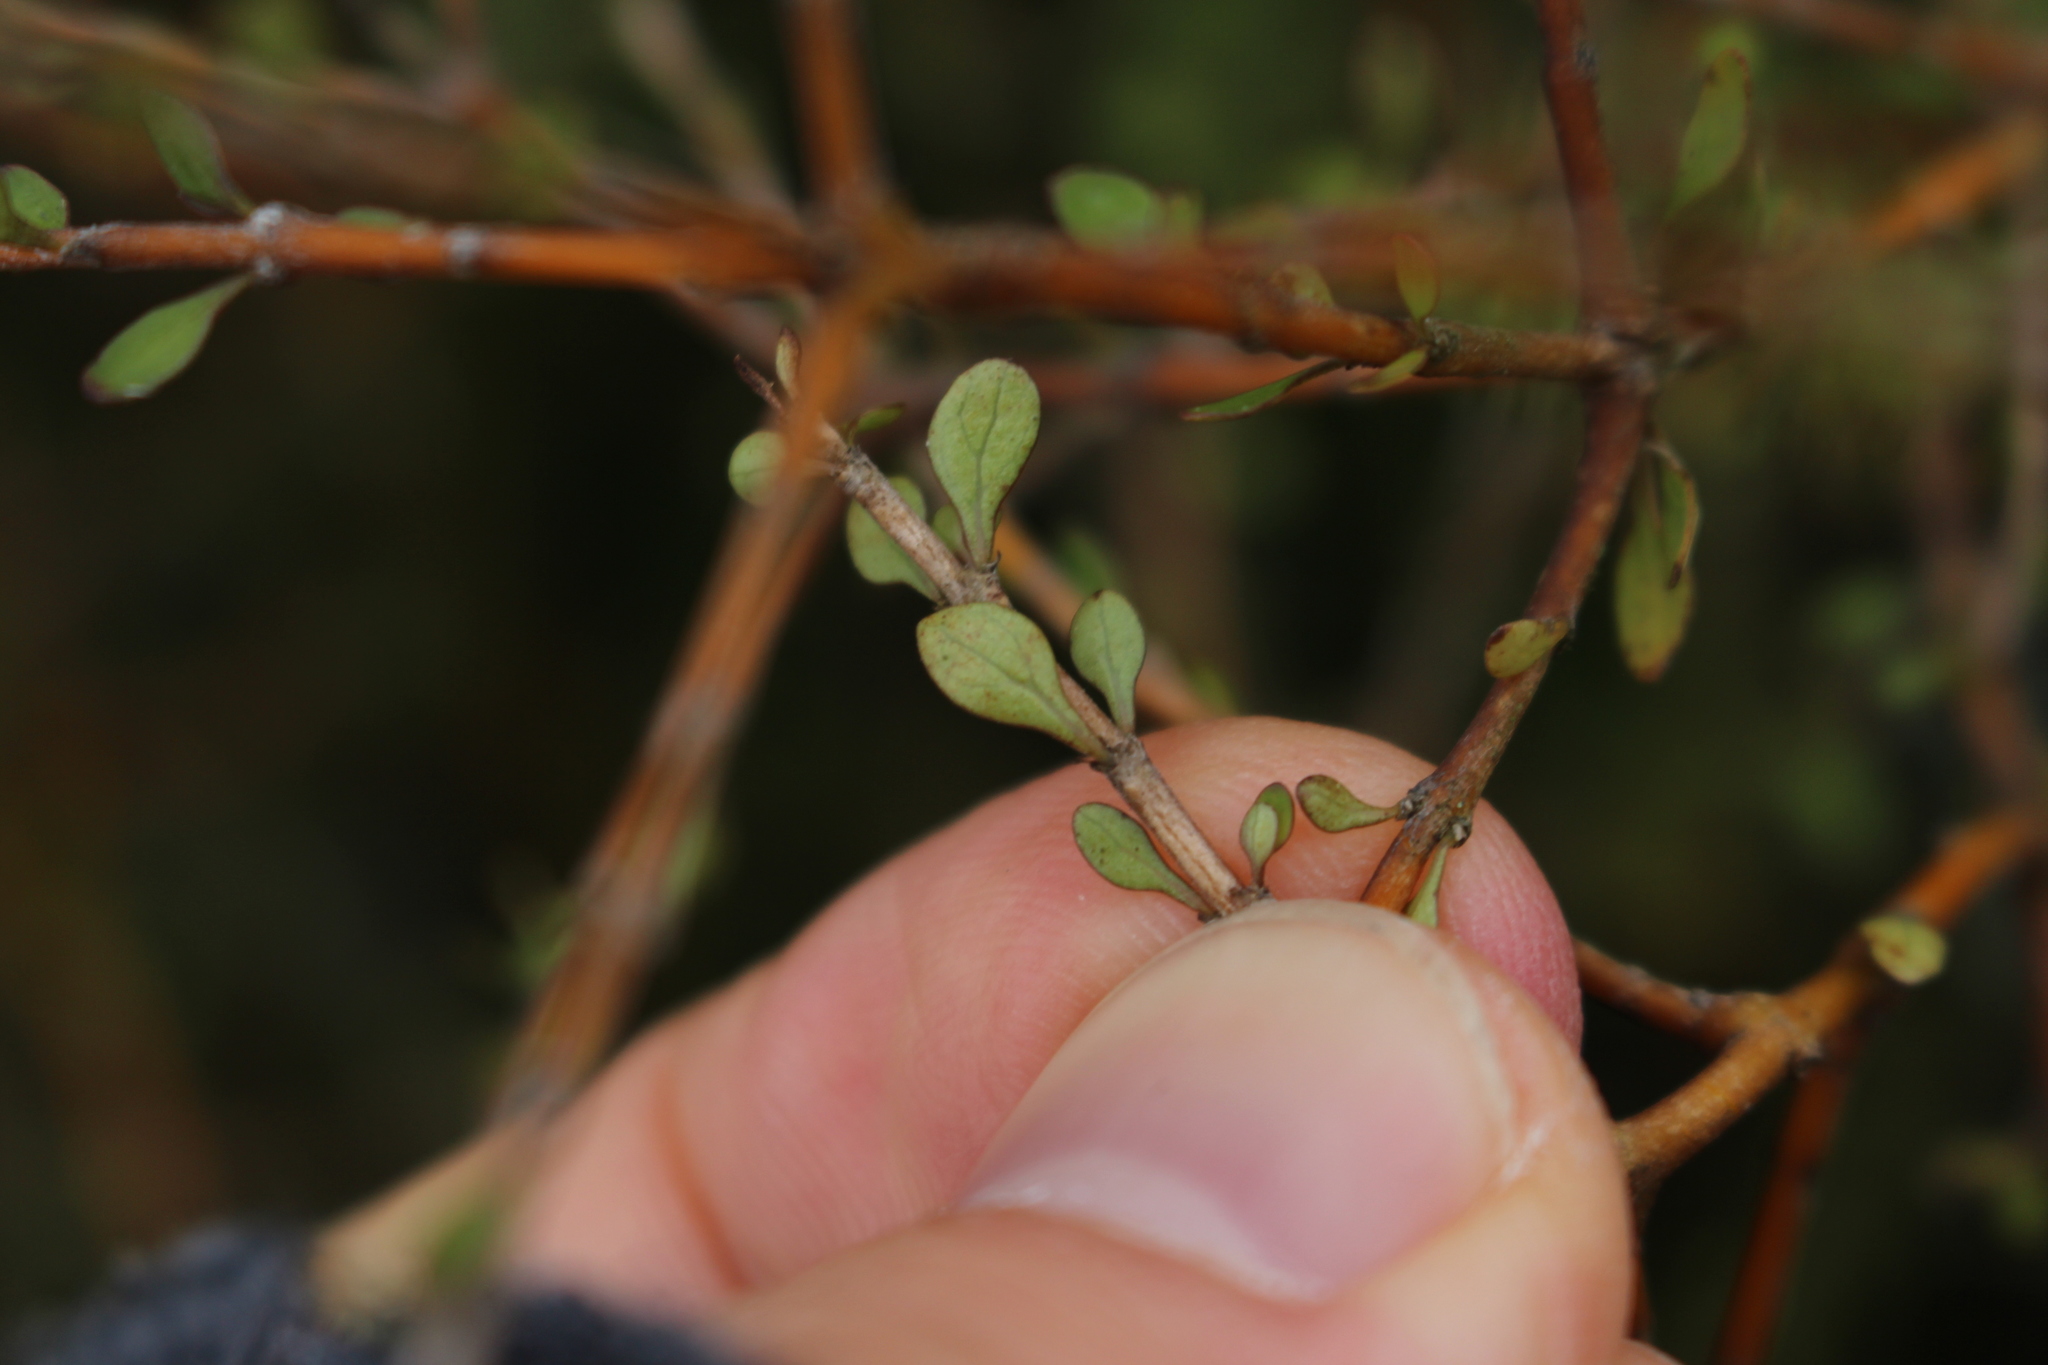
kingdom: Plantae
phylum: Tracheophyta
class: Magnoliopsida
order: Gentianales
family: Rubiaceae
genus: Coprosma
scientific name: Coprosma virescens
